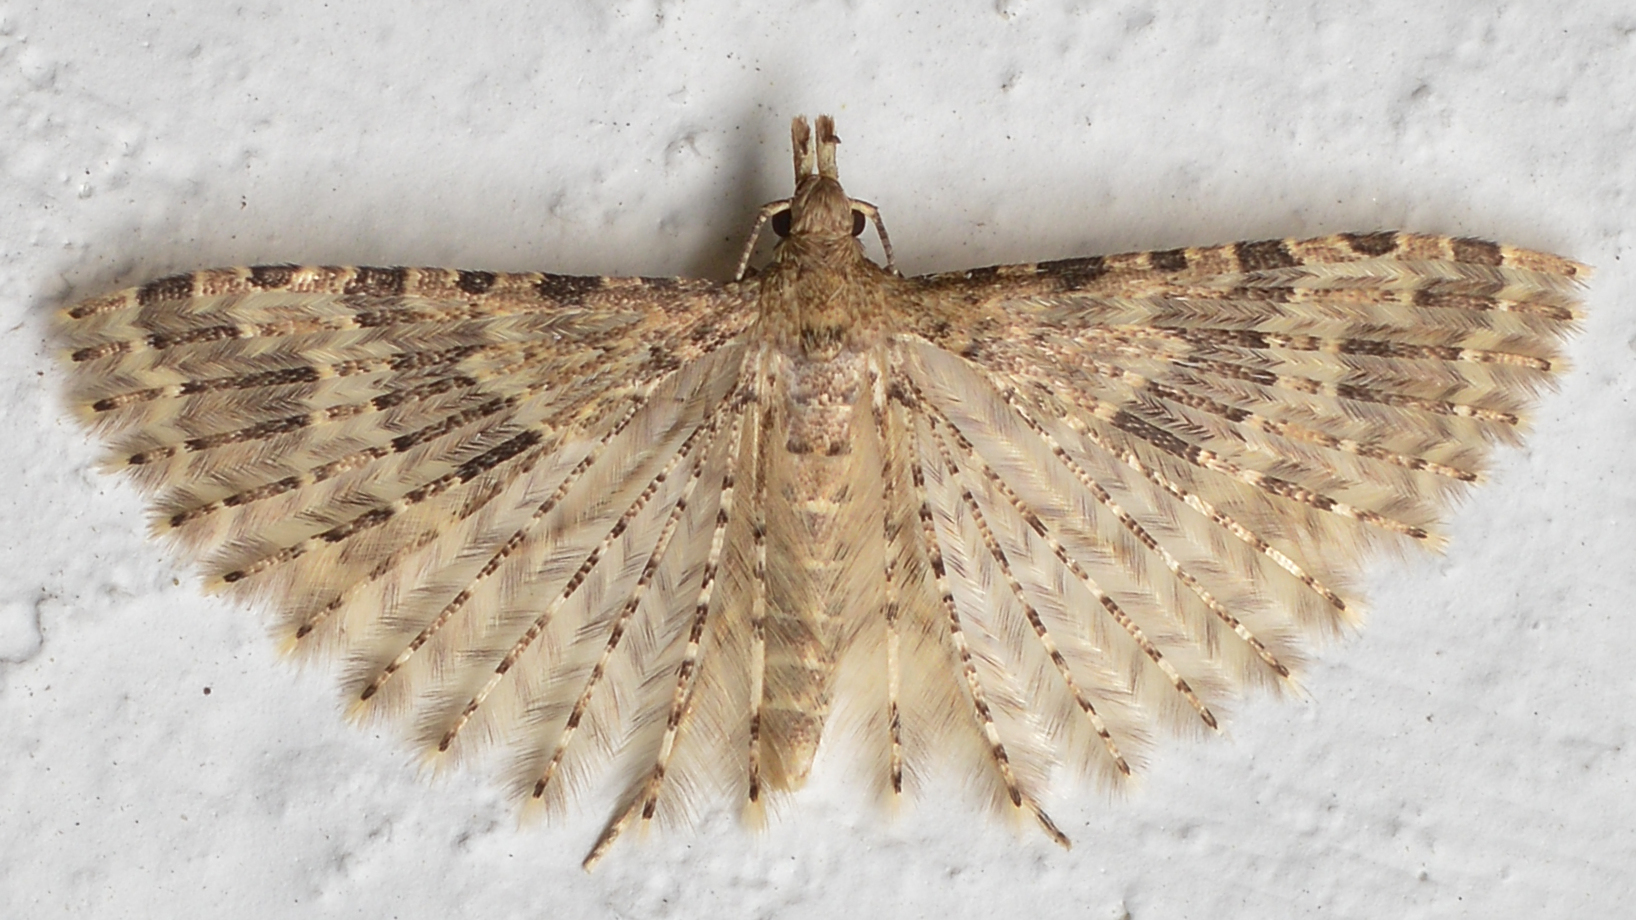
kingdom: Animalia
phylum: Arthropoda
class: Insecta
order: Lepidoptera
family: Alucitidae
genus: Alucita
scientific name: Alucita hexadactyla
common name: Twenty-plume moth
